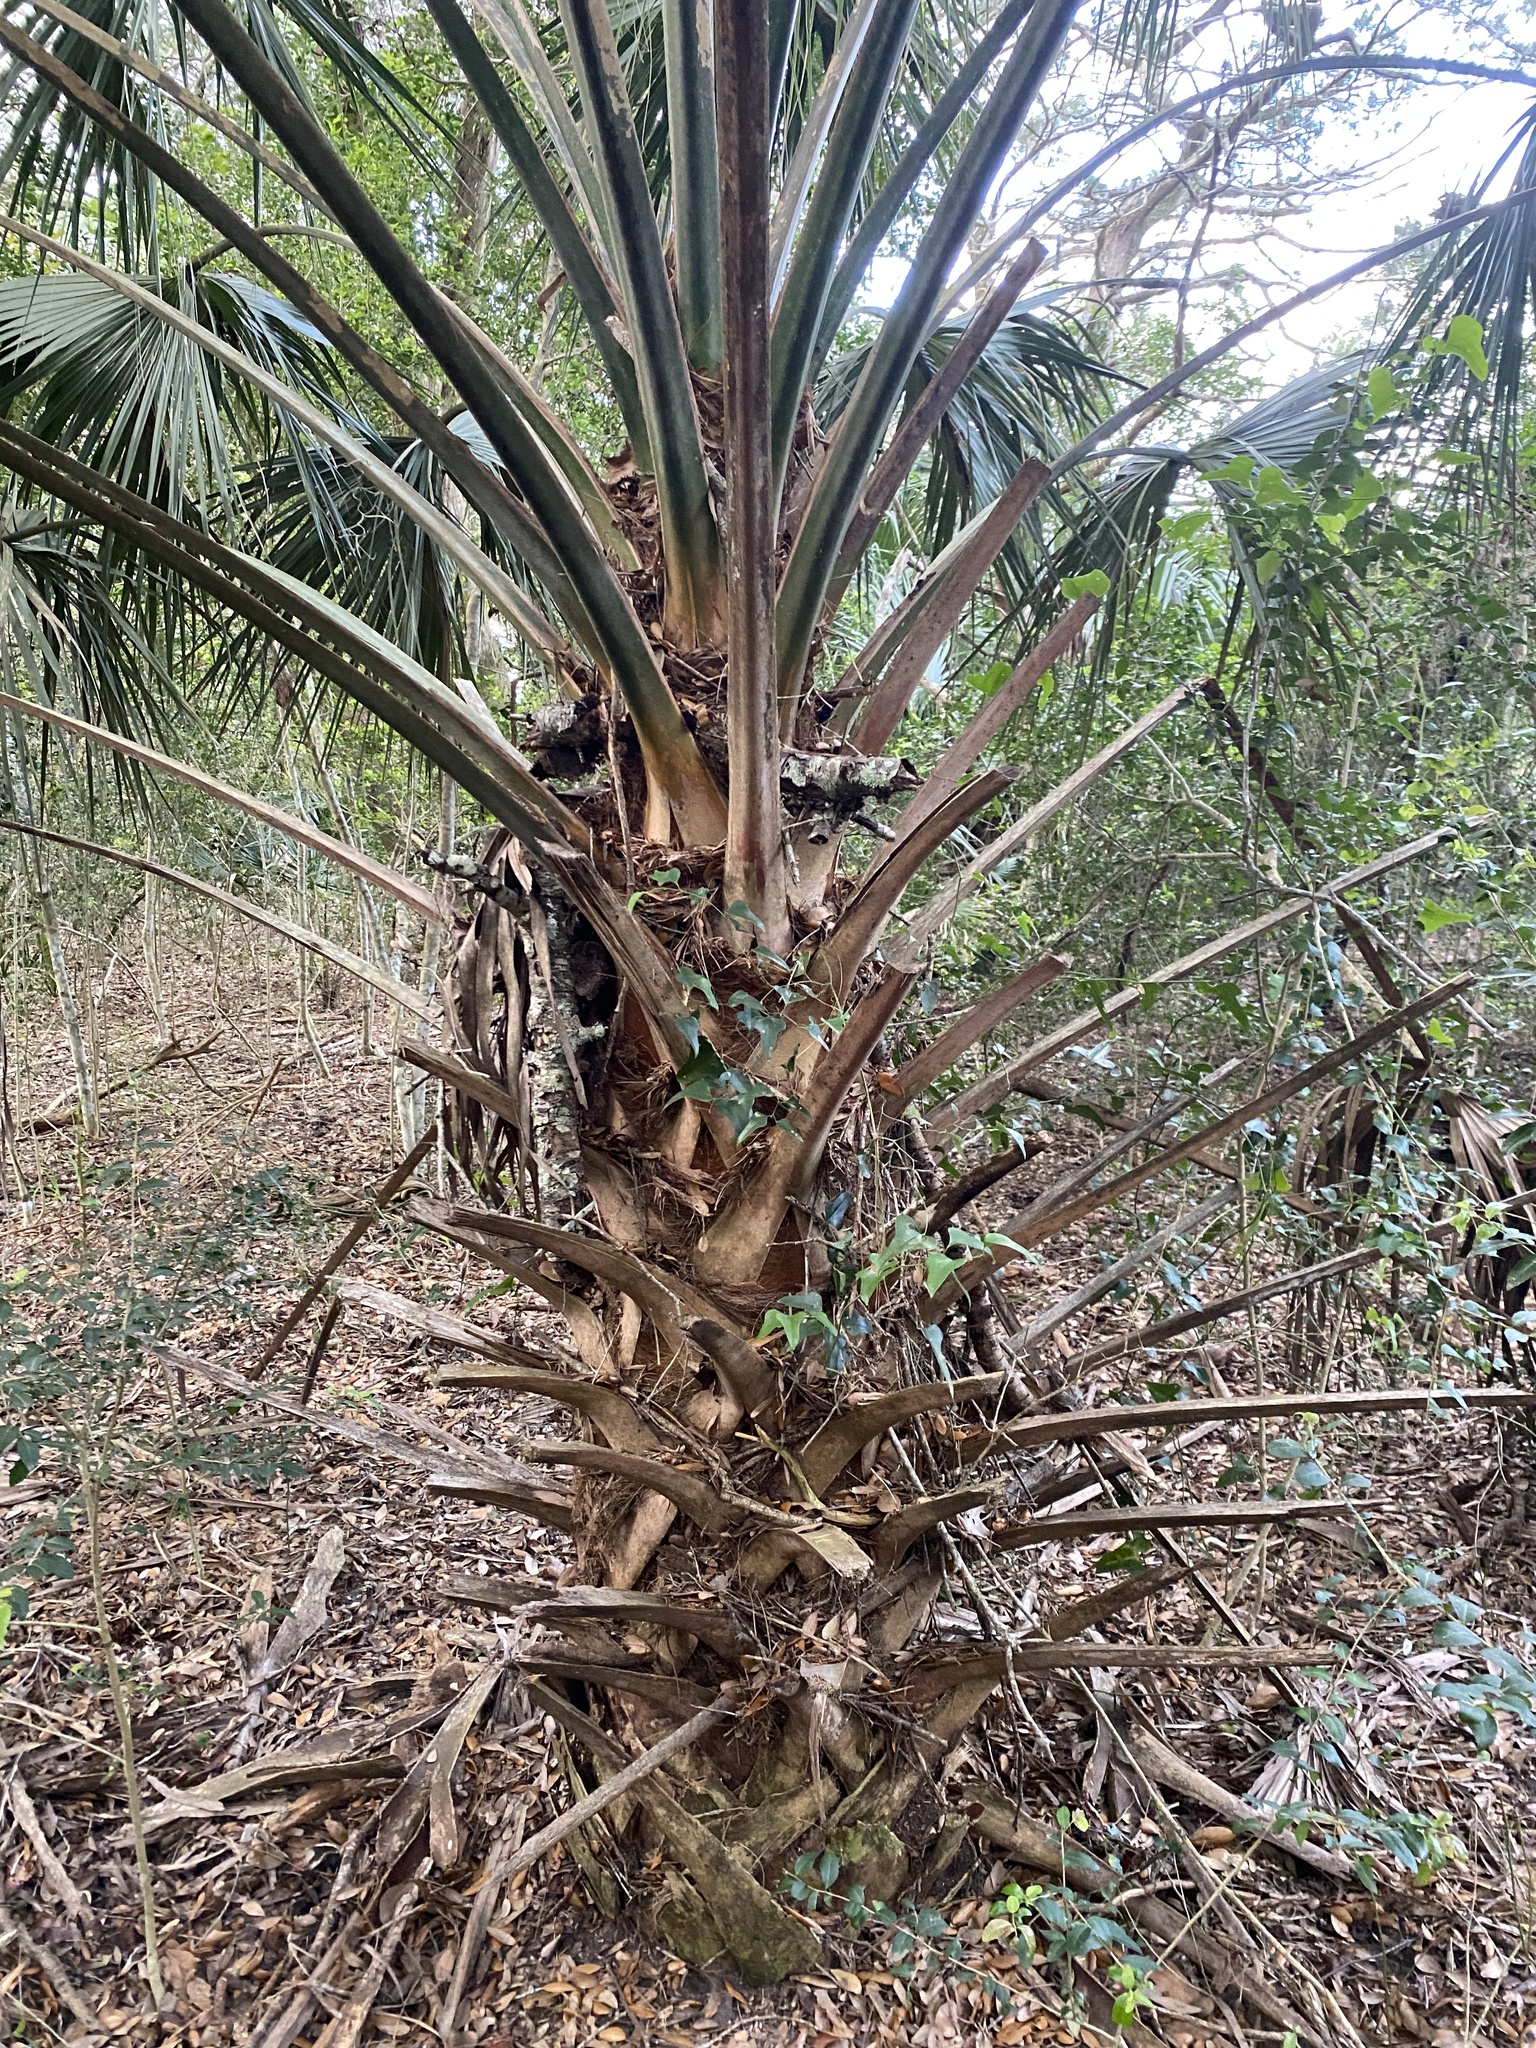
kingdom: Plantae
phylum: Tracheophyta
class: Liliopsida
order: Arecales
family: Arecaceae
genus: Sabal
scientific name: Sabal palmetto
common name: Blue palmetto
